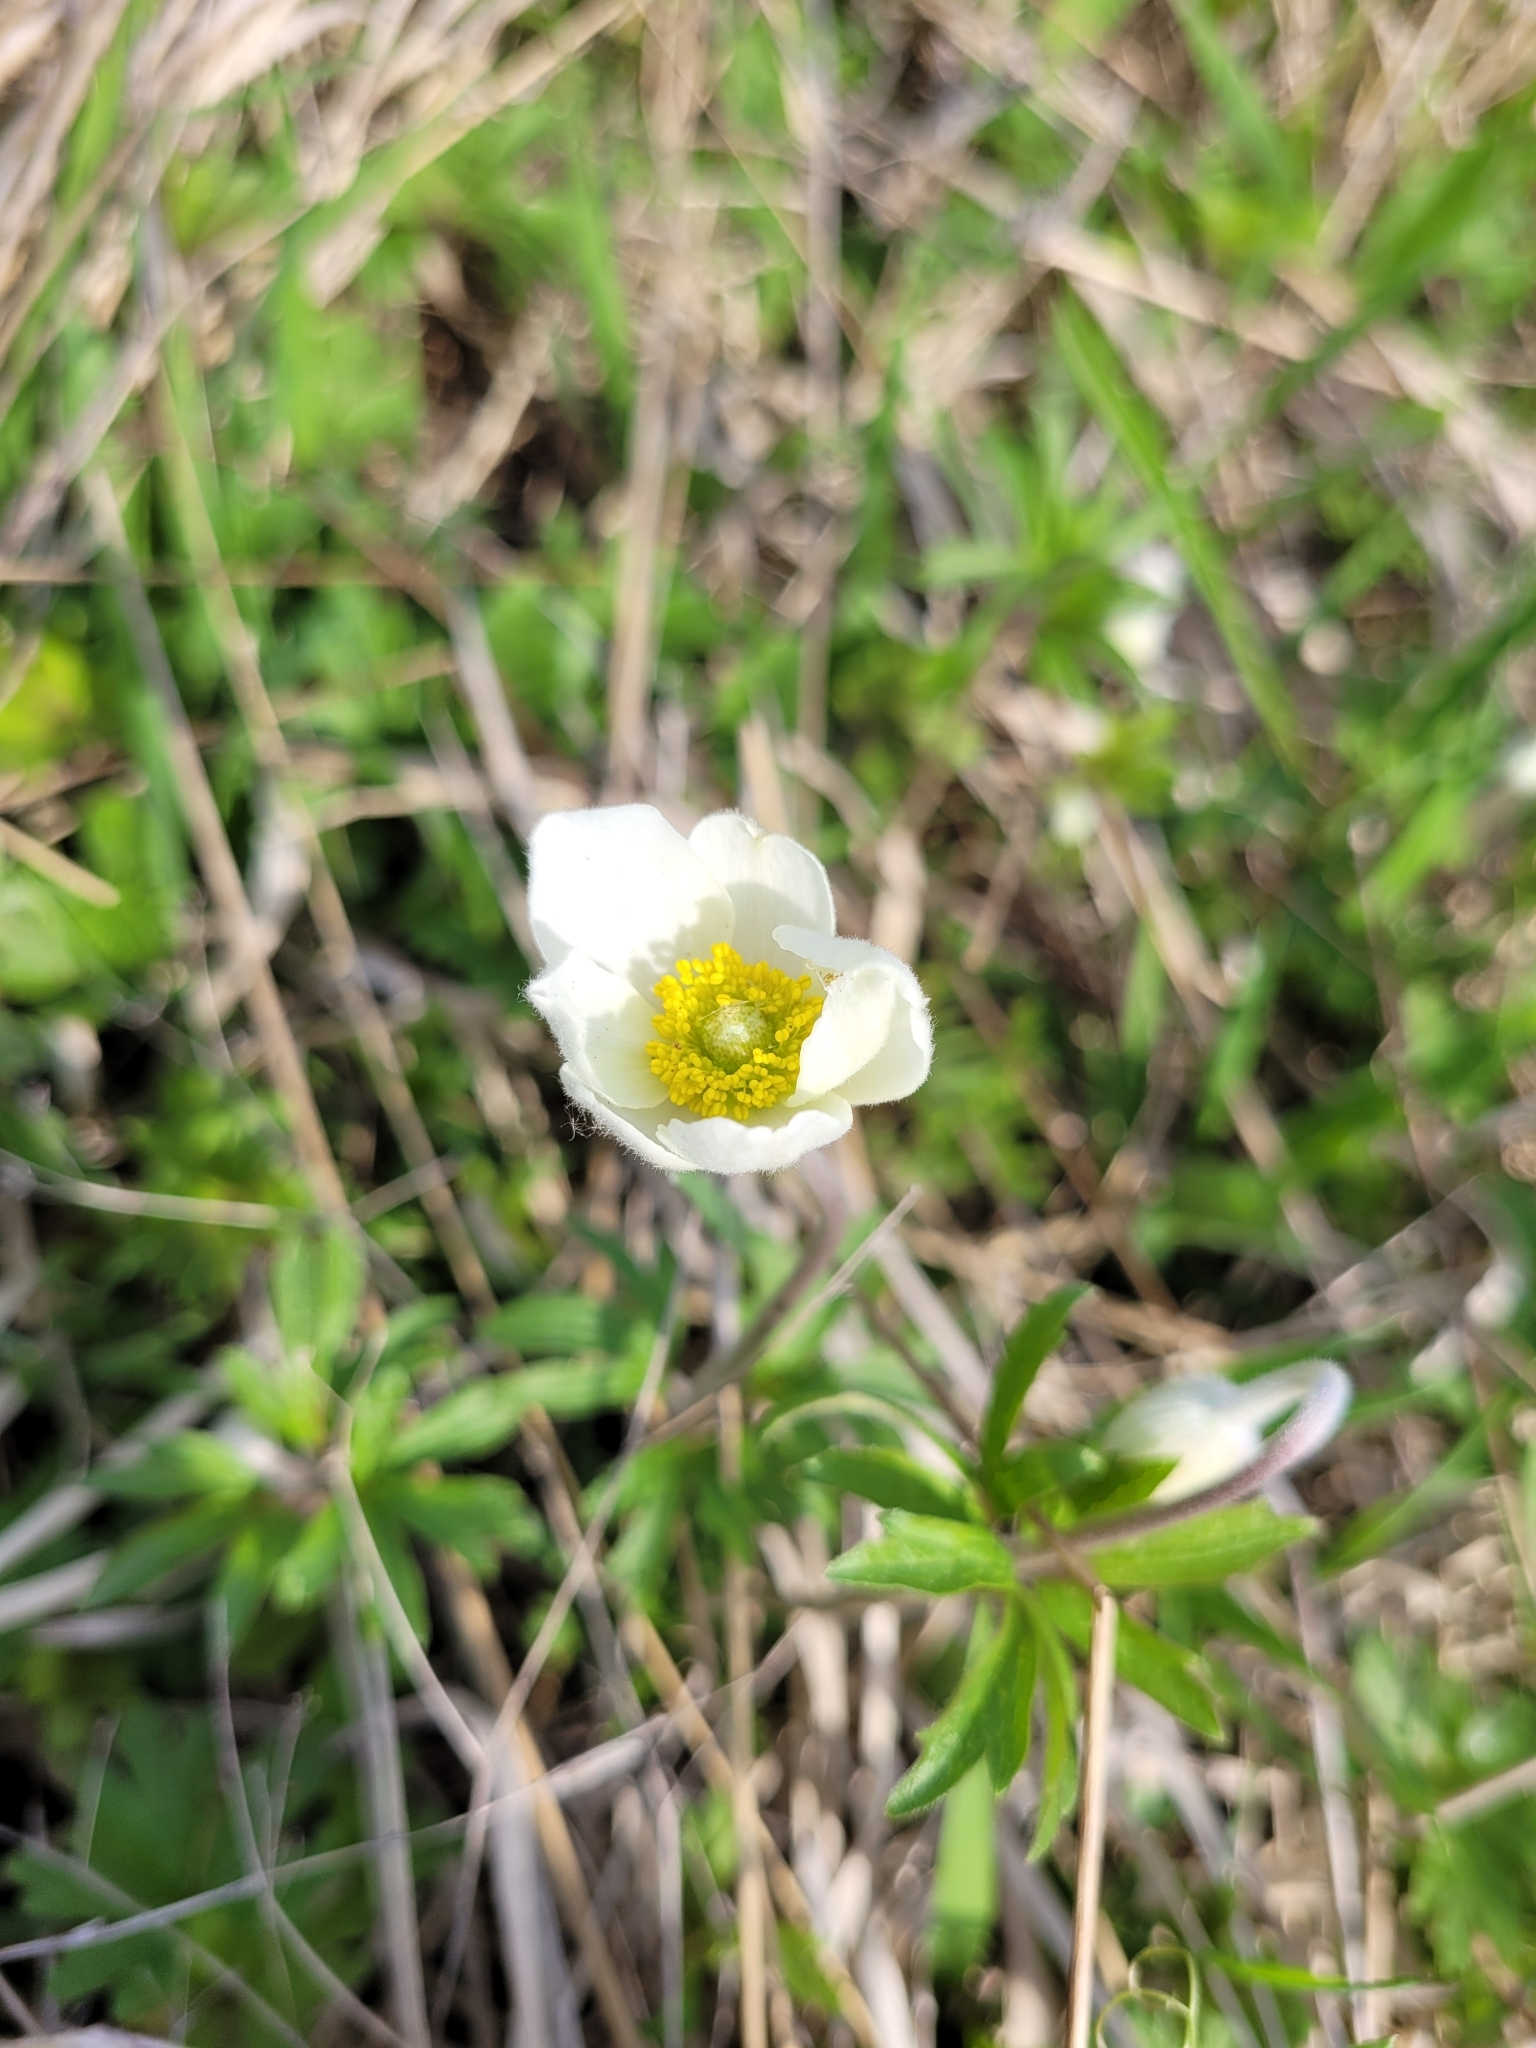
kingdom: Plantae
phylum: Tracheophyta
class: Magnoliopsida
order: Ranunculales
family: Ranunculaceae
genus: Anemone
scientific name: Anemone sylvestris
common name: Snowdrop anemone
